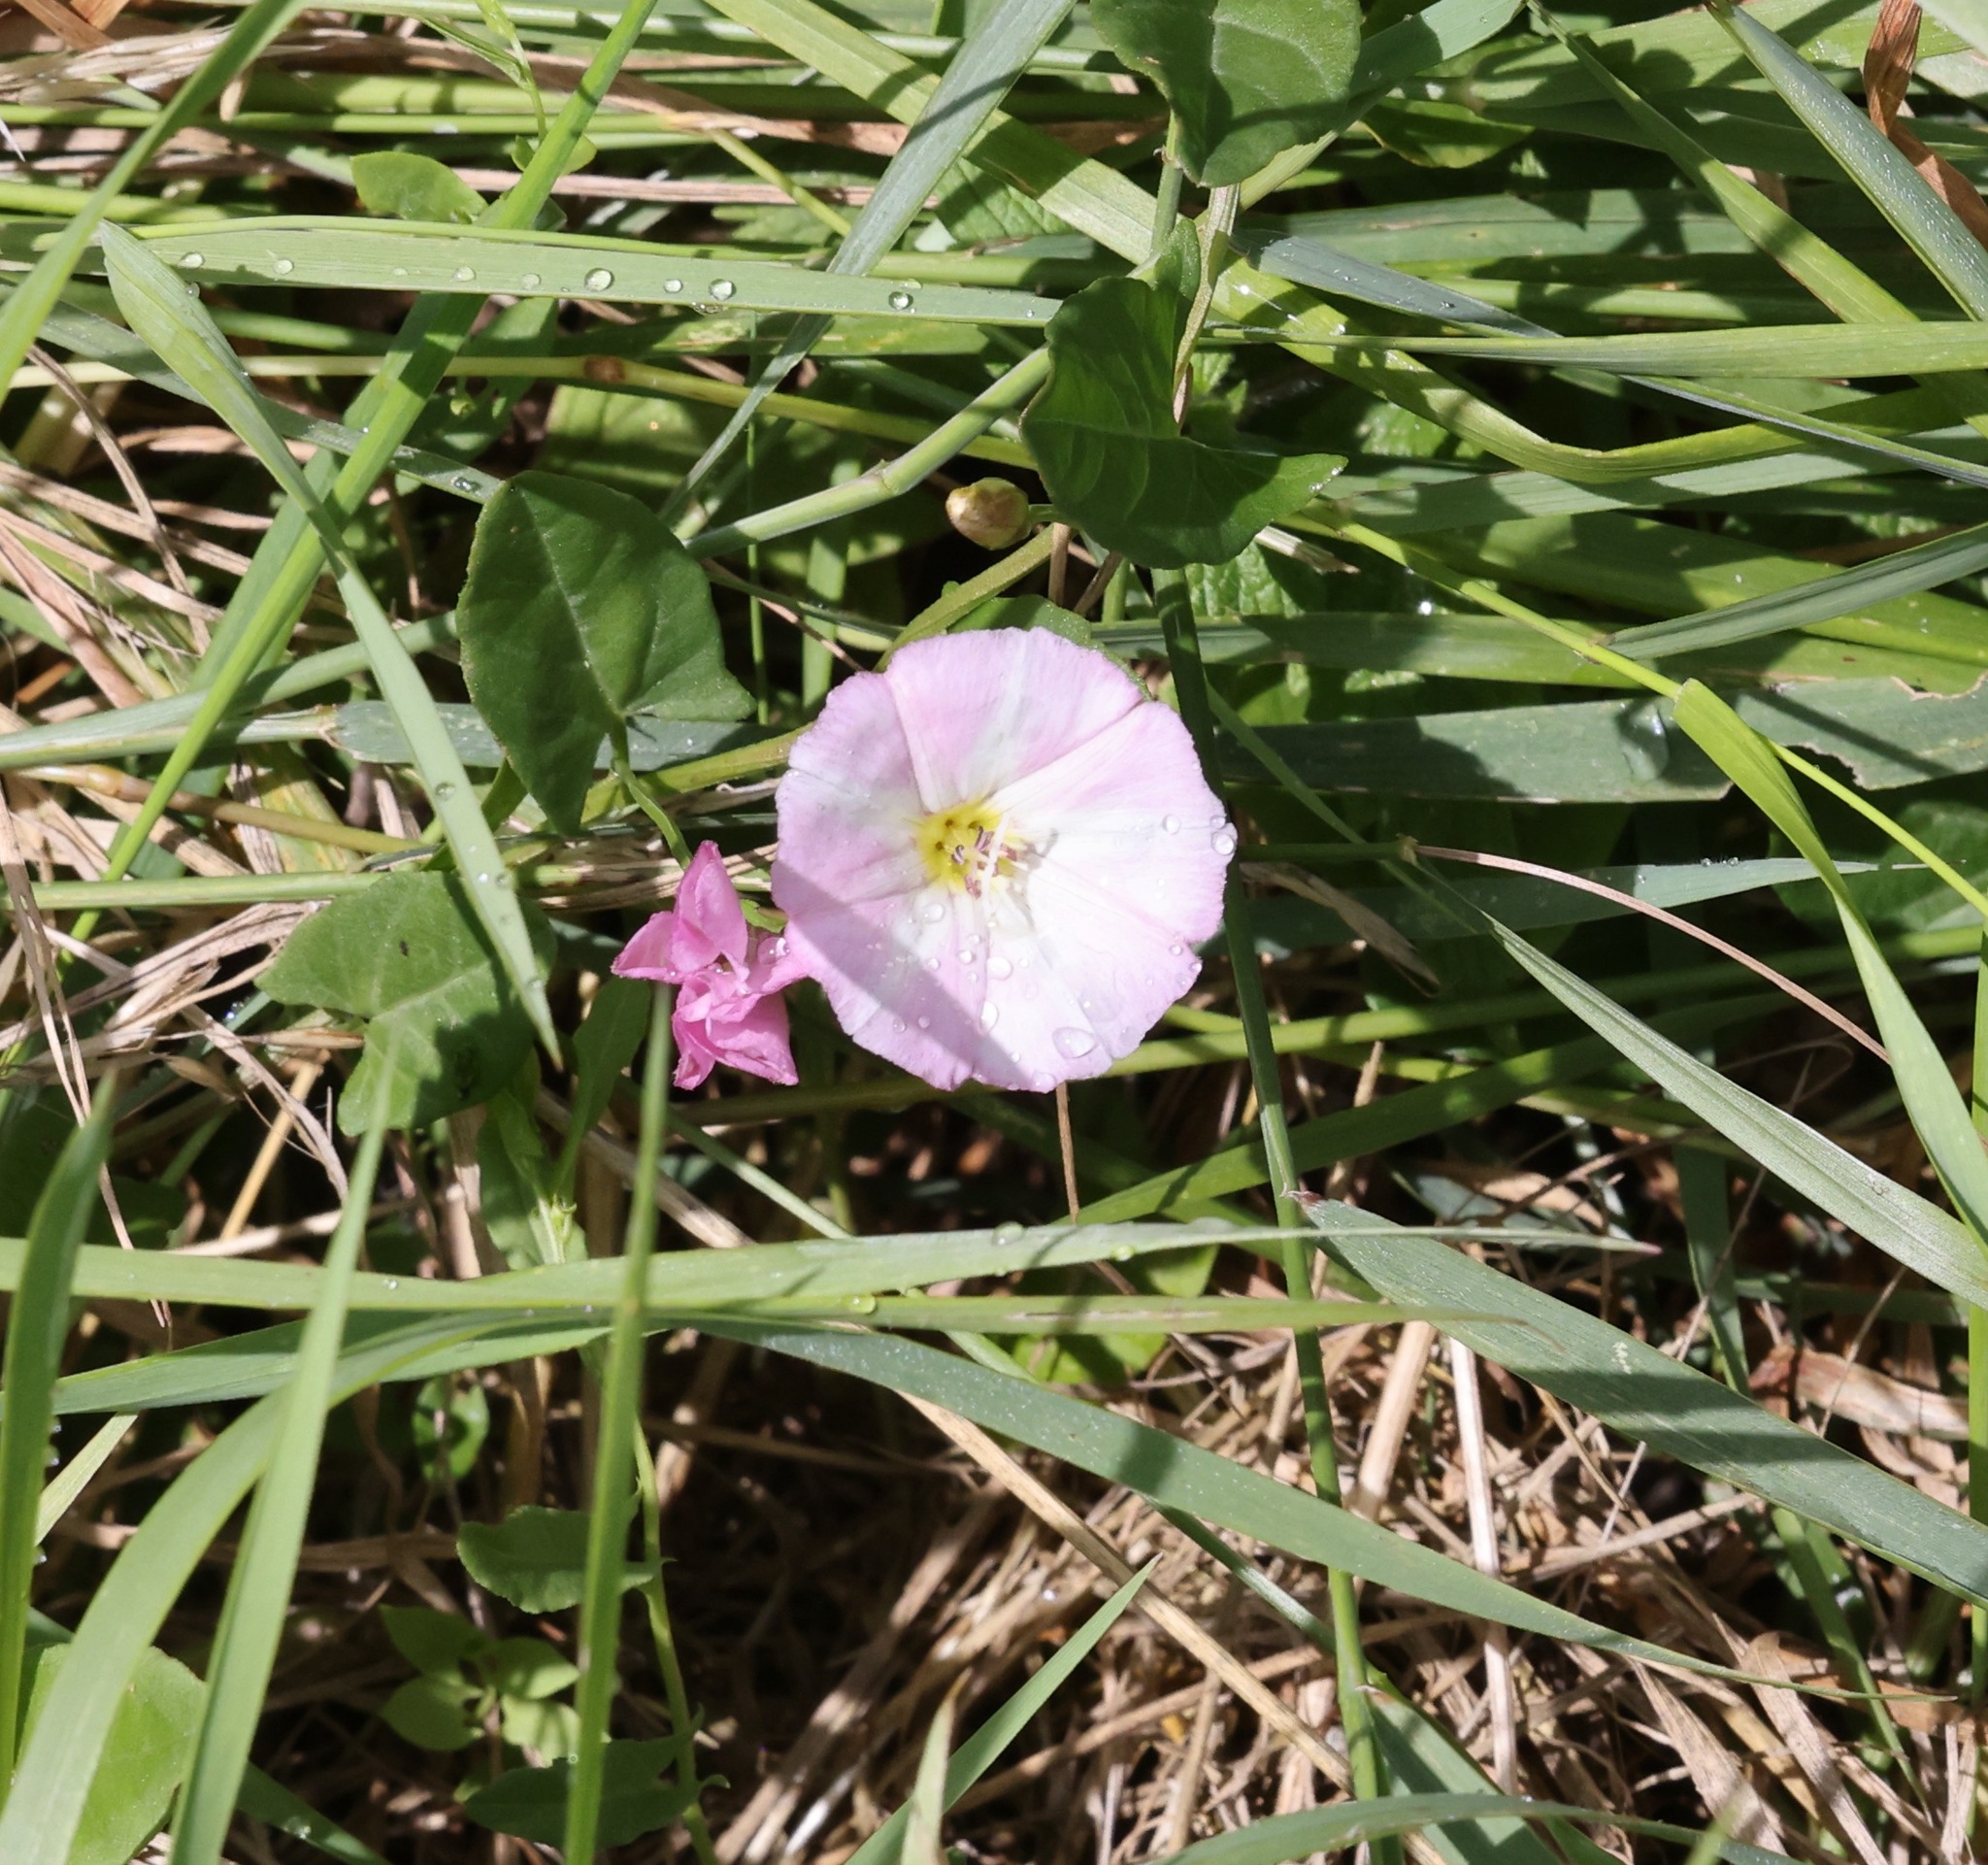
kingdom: Plantae
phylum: Tracheophyta
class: Magnoliopsida
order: Solanales
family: Convolvulaceae
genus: Convolvulus
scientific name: Convolvulus arvensis
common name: Field bindweed
